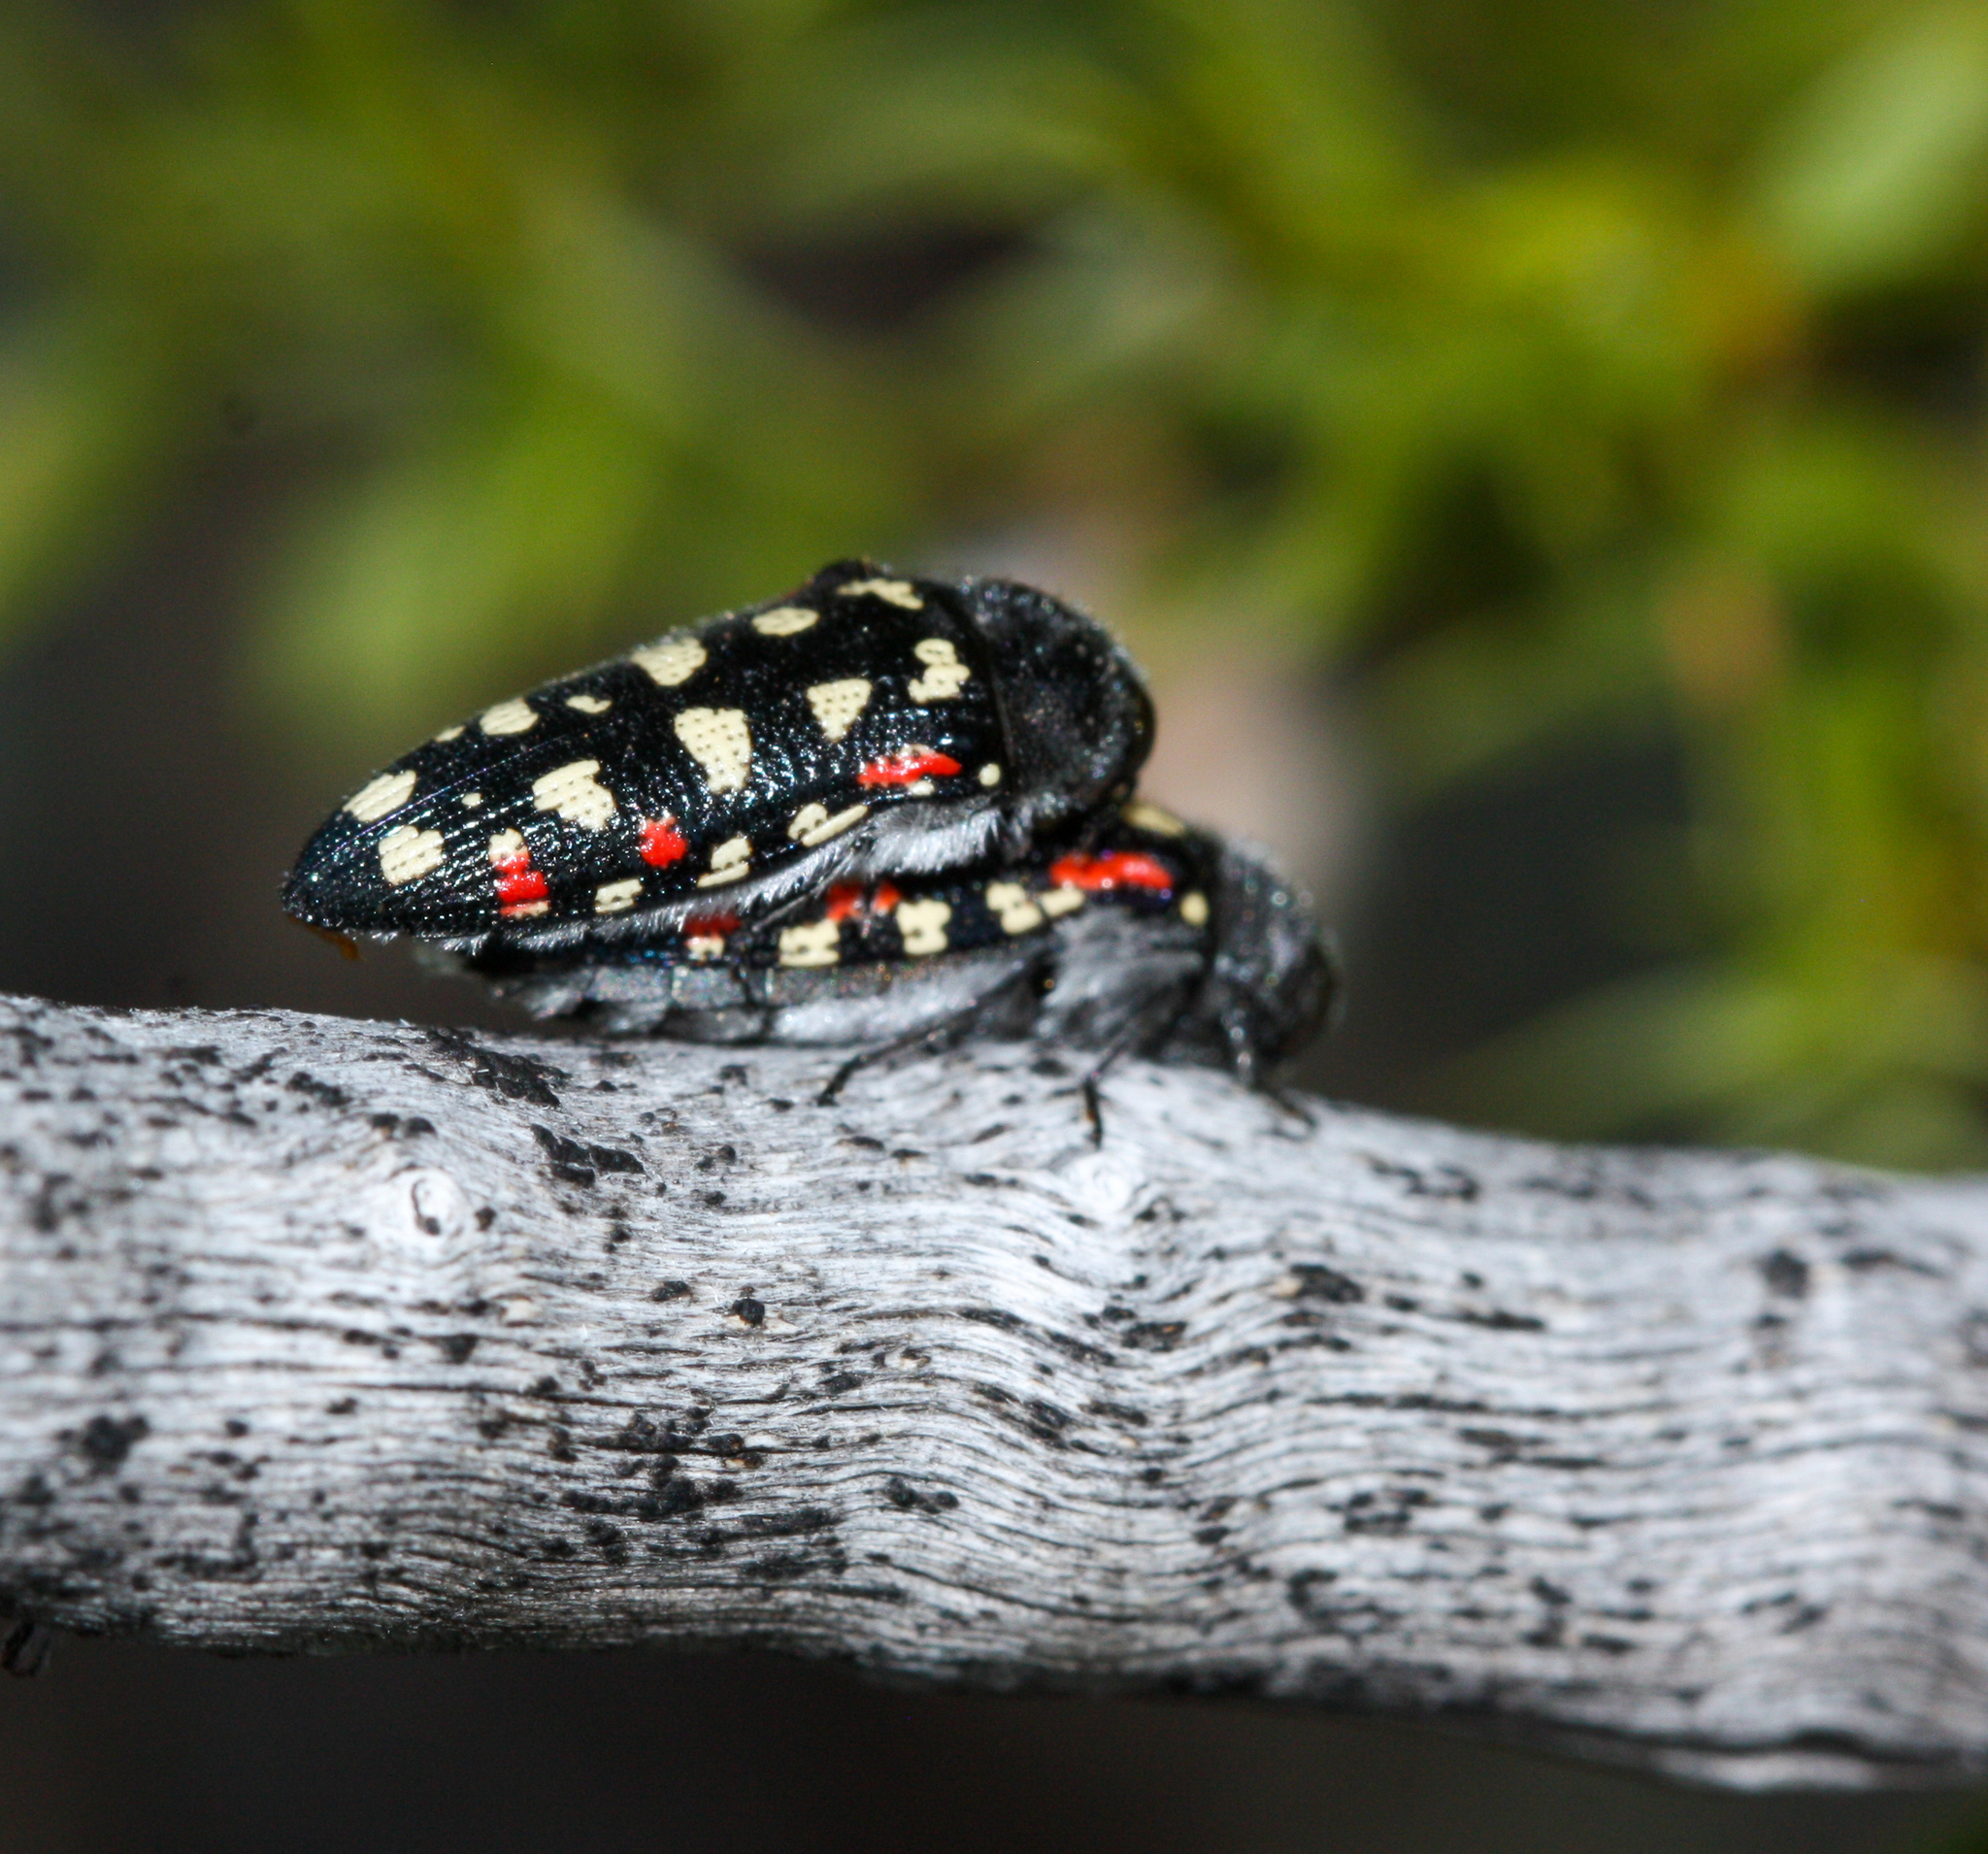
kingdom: Animalia
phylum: Arthropoda
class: Insecta
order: Coleoptera
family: Buprestidae
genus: Acmaeodera
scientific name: Acmaeodera gibbula
